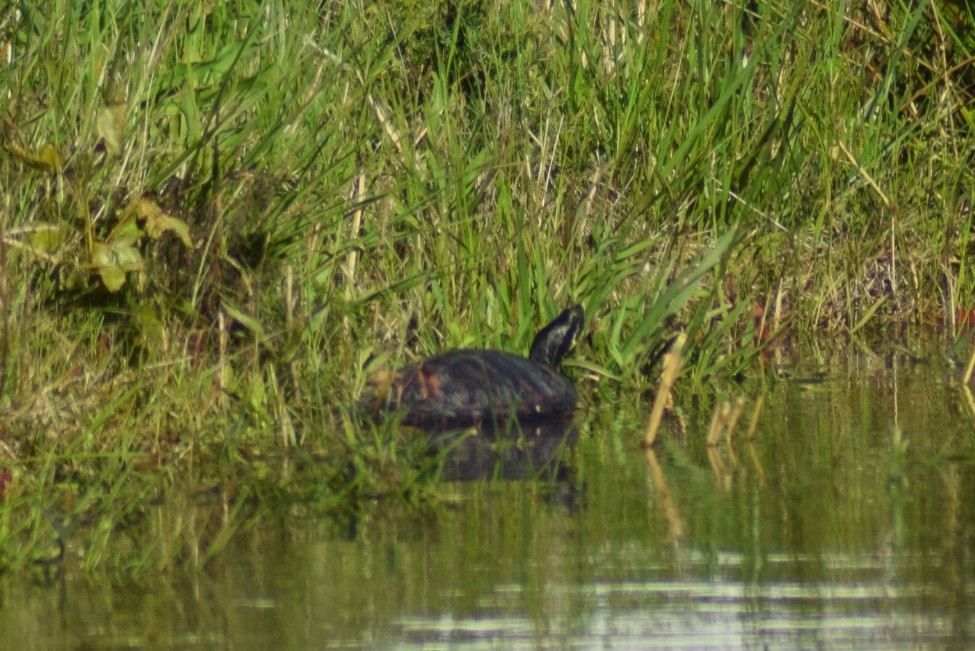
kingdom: Animalia
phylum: Chordata
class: Testudines
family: Emydidae
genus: Pseudemys
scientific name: Pseudemys rubriventris
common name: American red-bellied turtle
